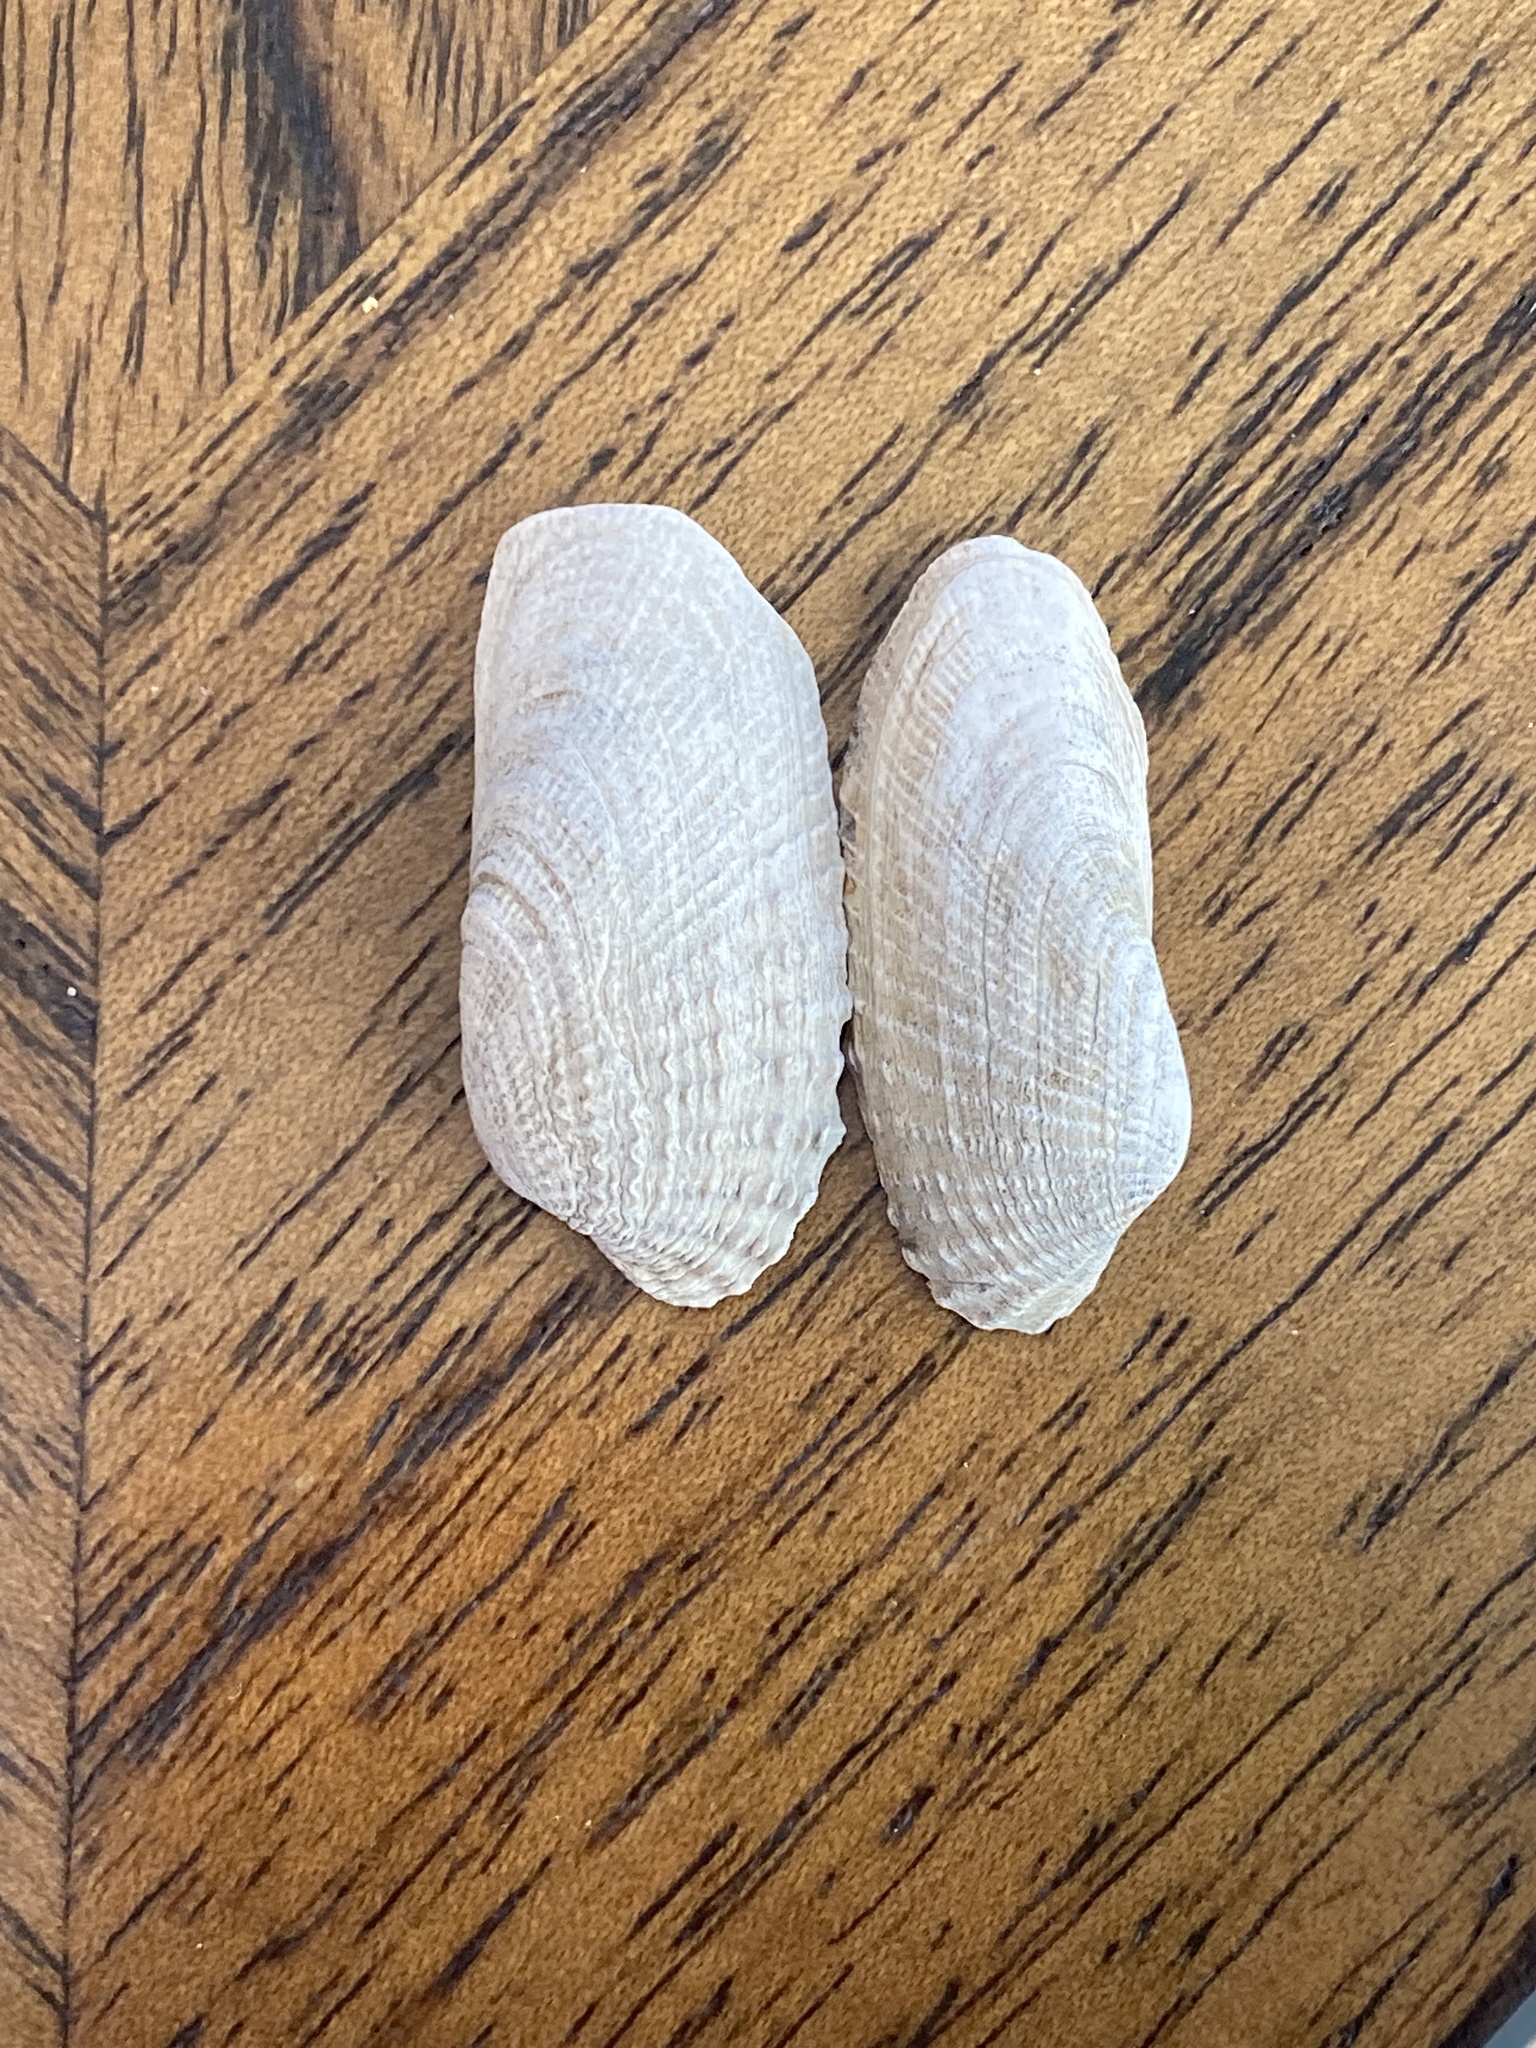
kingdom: Animalia
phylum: Mollusca
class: Bivalvia
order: Venerida
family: Veneridae
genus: Petricolaria
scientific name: Petricolaria pholadiformis
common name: American piddock
